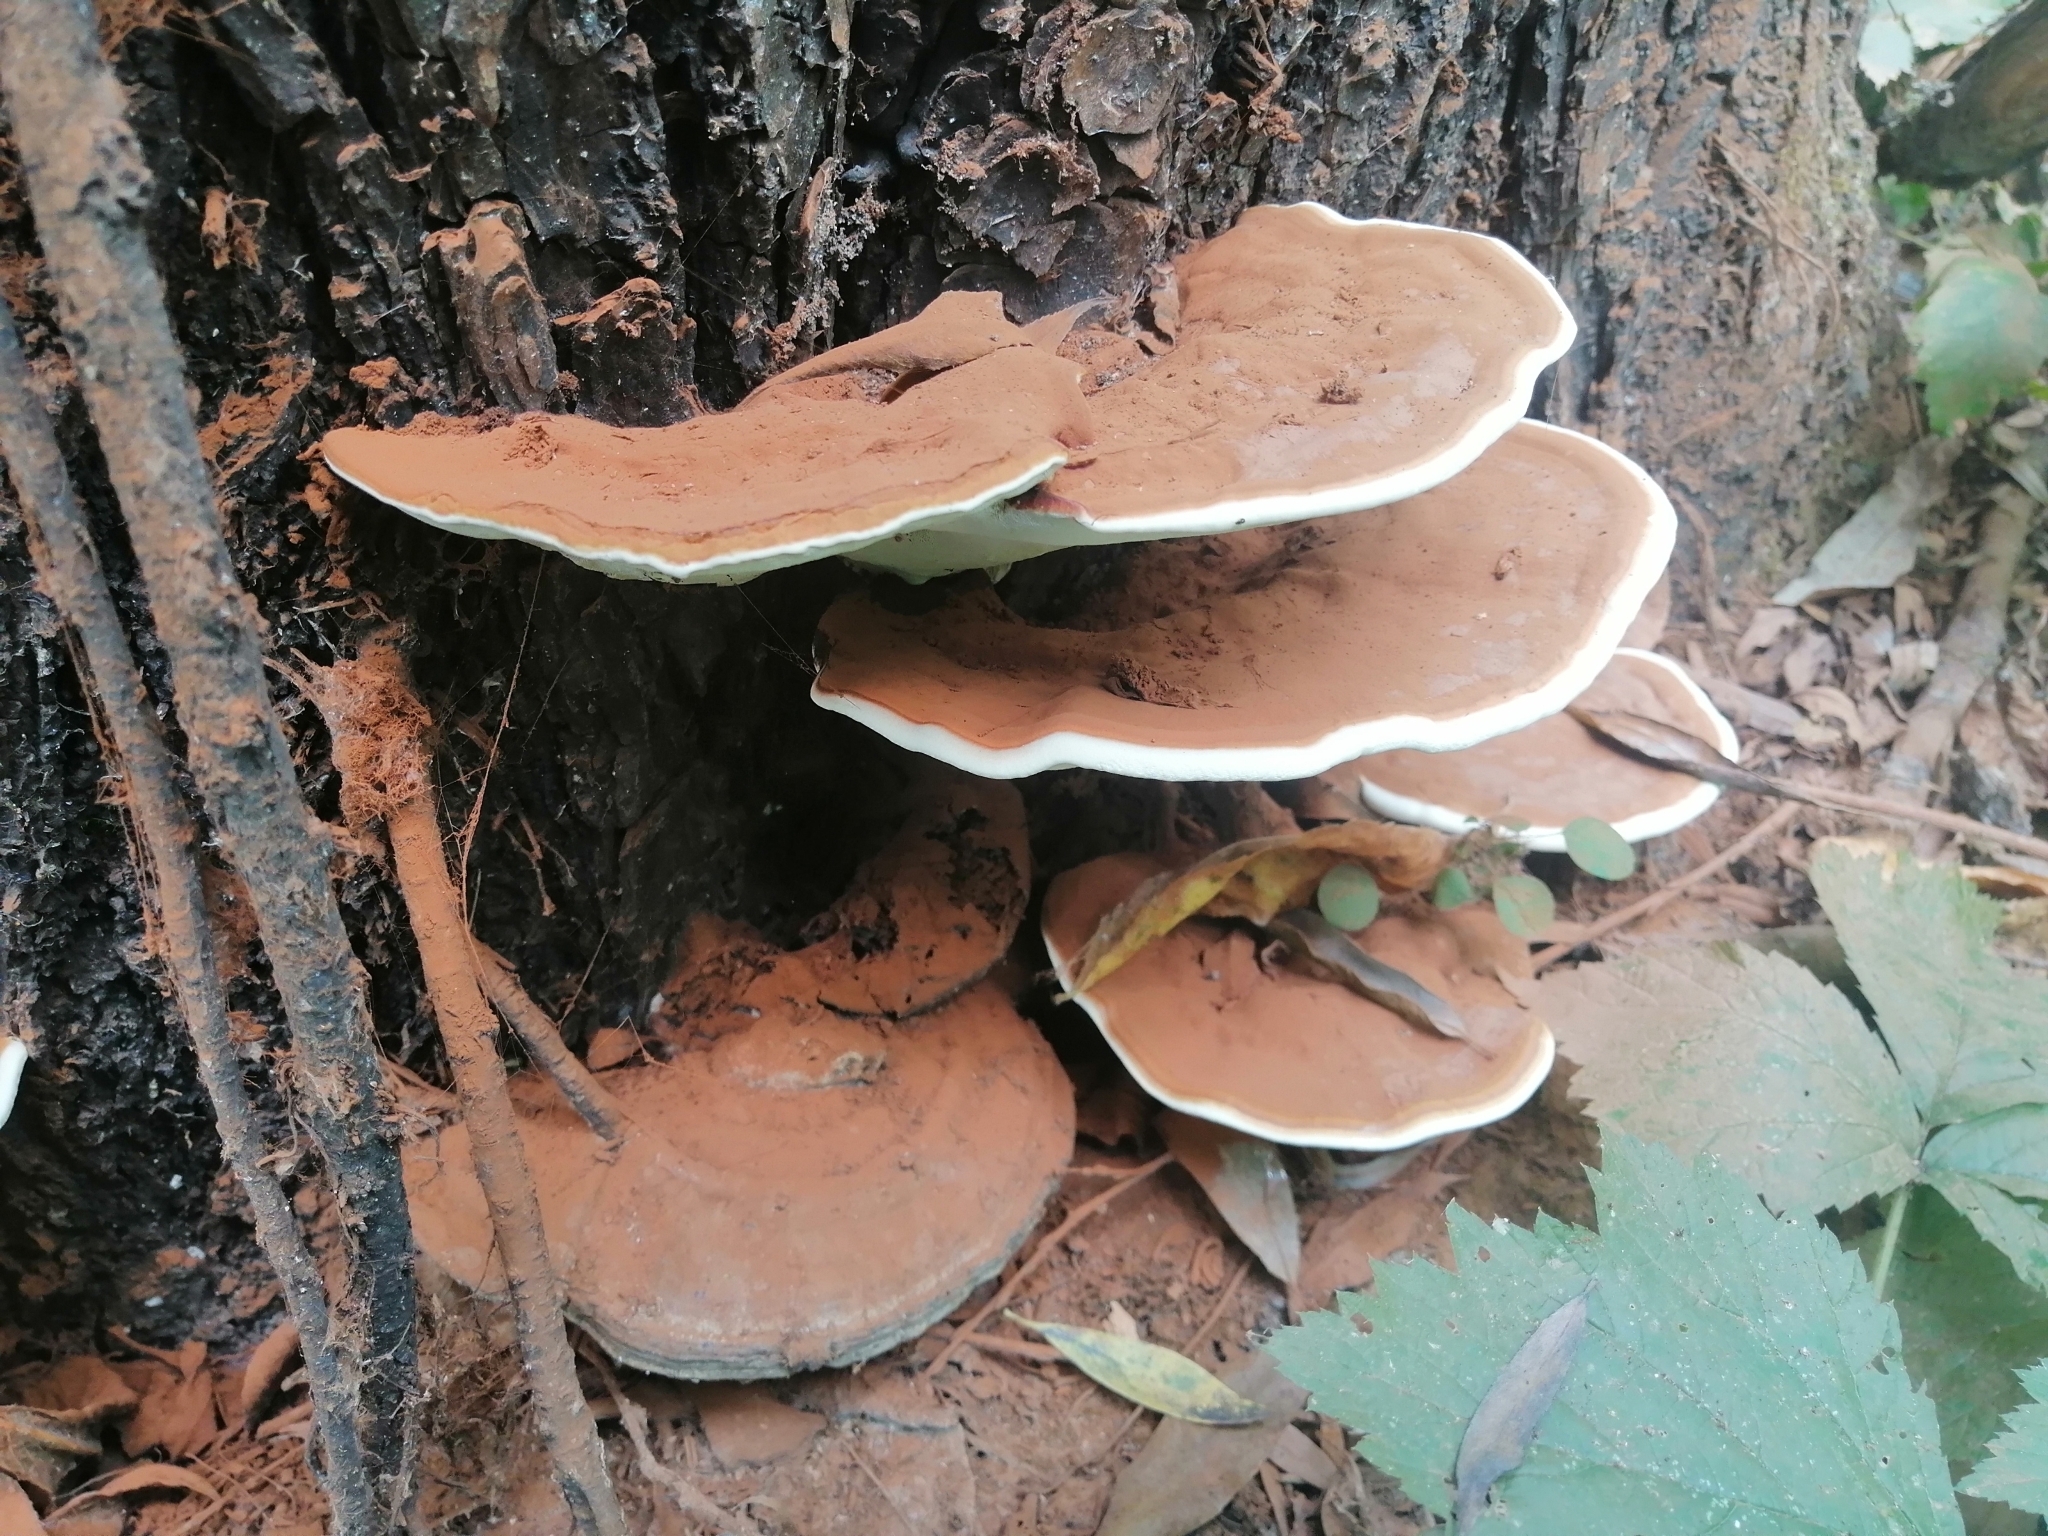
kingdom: Fungi
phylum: Basidiomycota
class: Agaricomycetes
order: Polyporales
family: Polyporaceae
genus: Ganoderma
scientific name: Ganoderma resinaceum
